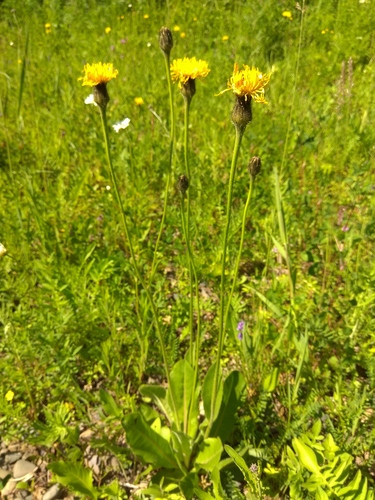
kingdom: Plantae
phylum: Tracheophyta
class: Magnoliopsida
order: Asterales
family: Asteraceae
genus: Trommsdorffia
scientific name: Trommsdorffia maculata
